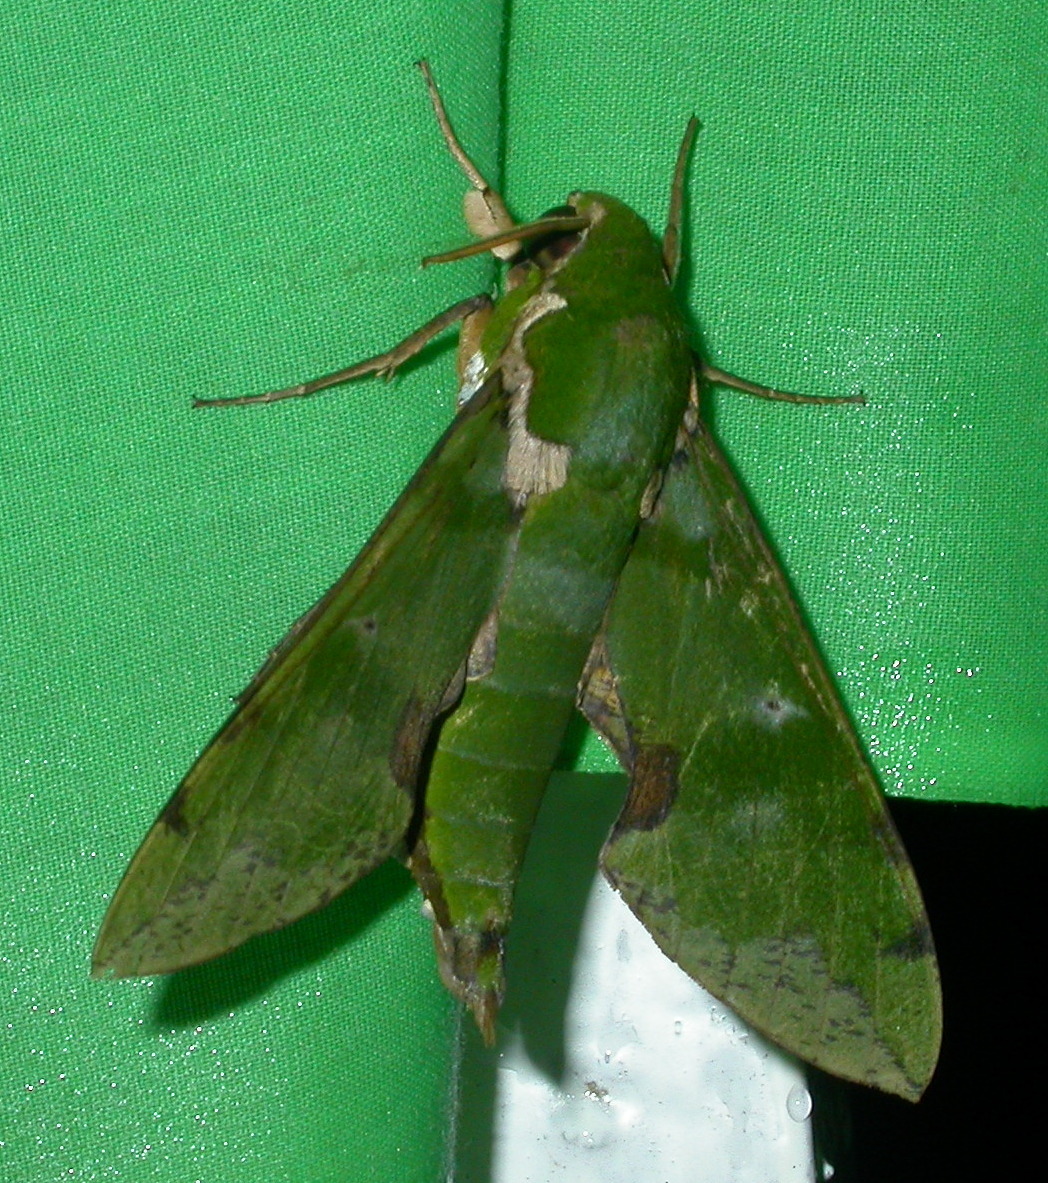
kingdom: Animalia
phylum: Arthropoda
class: Insecta
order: Lepidoptera
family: Sphingidae
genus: Euchloron
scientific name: Euchloron megaera
